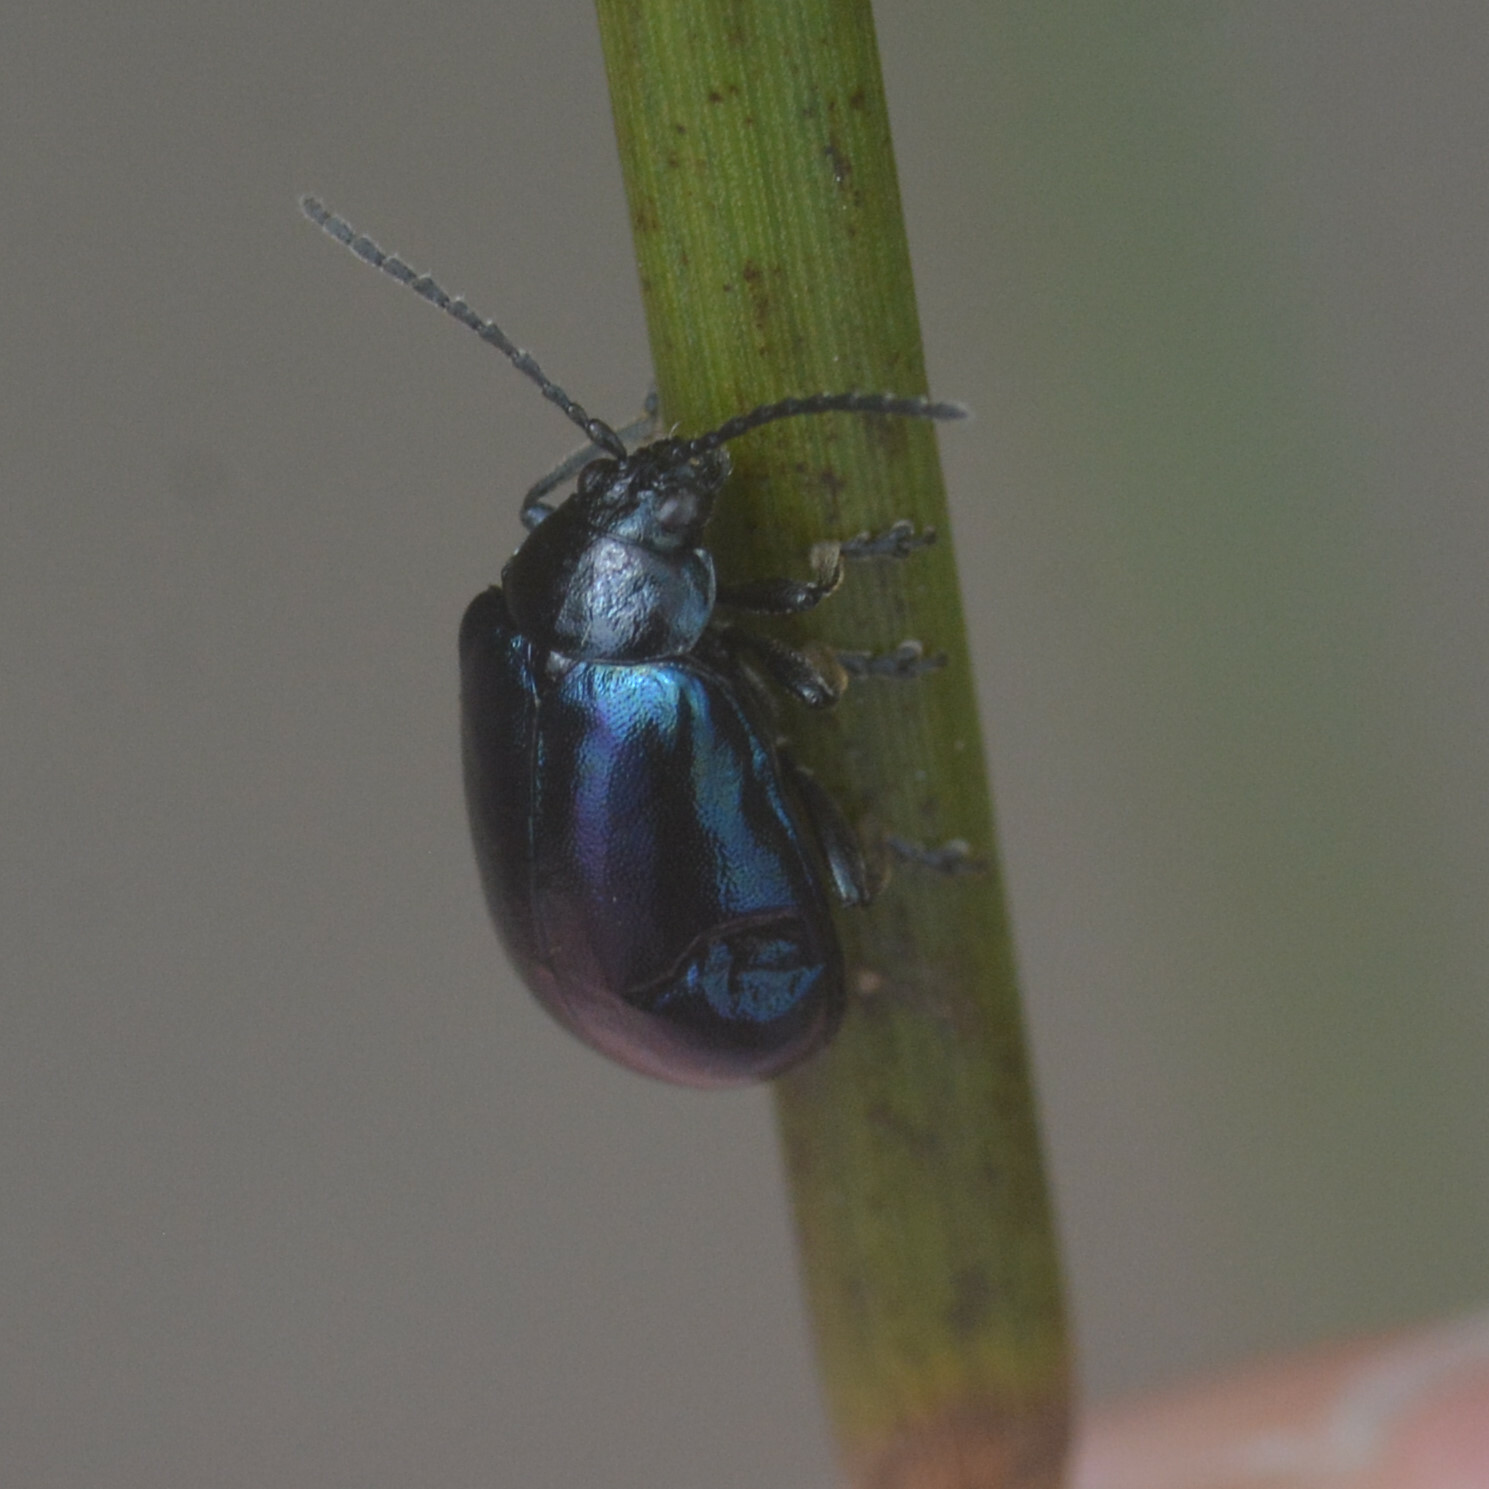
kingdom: Animalia
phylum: Arthropoda
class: Insecta
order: Coleoptera
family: Chrysomelidae
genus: Agelastica
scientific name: Agelastica alni
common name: Alder leaf beetle
